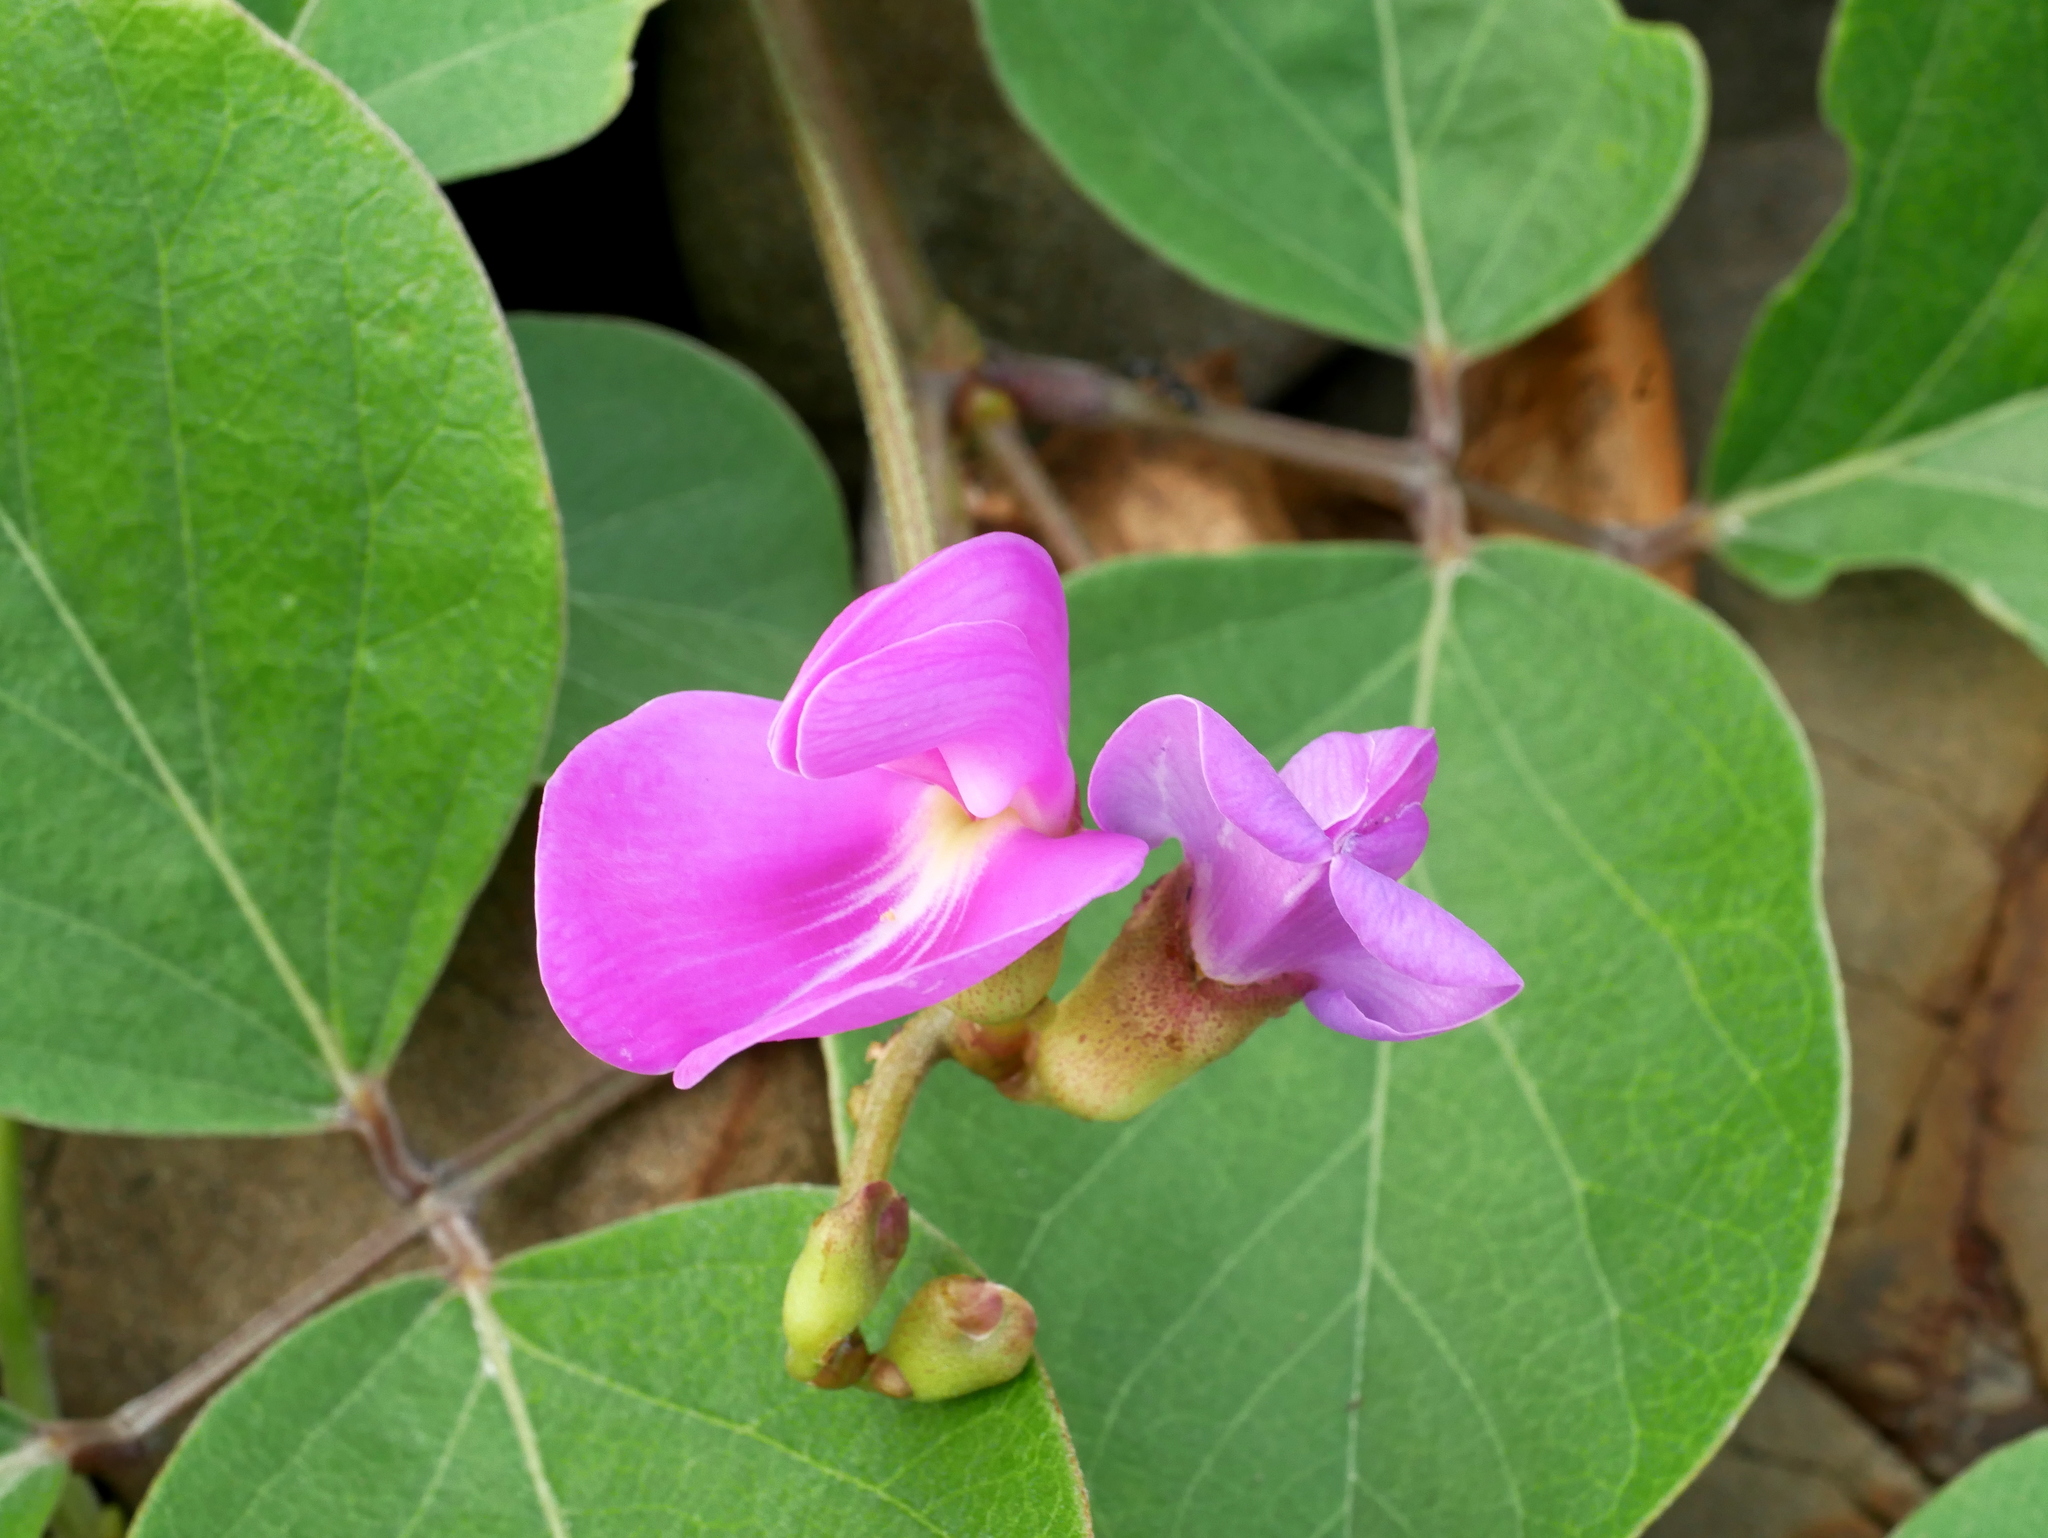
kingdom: Plantae
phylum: Tracheophyta
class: Magnoliopsida
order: Fabales
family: Fabaceae
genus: Canavalia
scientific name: Canavalia rosea
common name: Beach-bean
